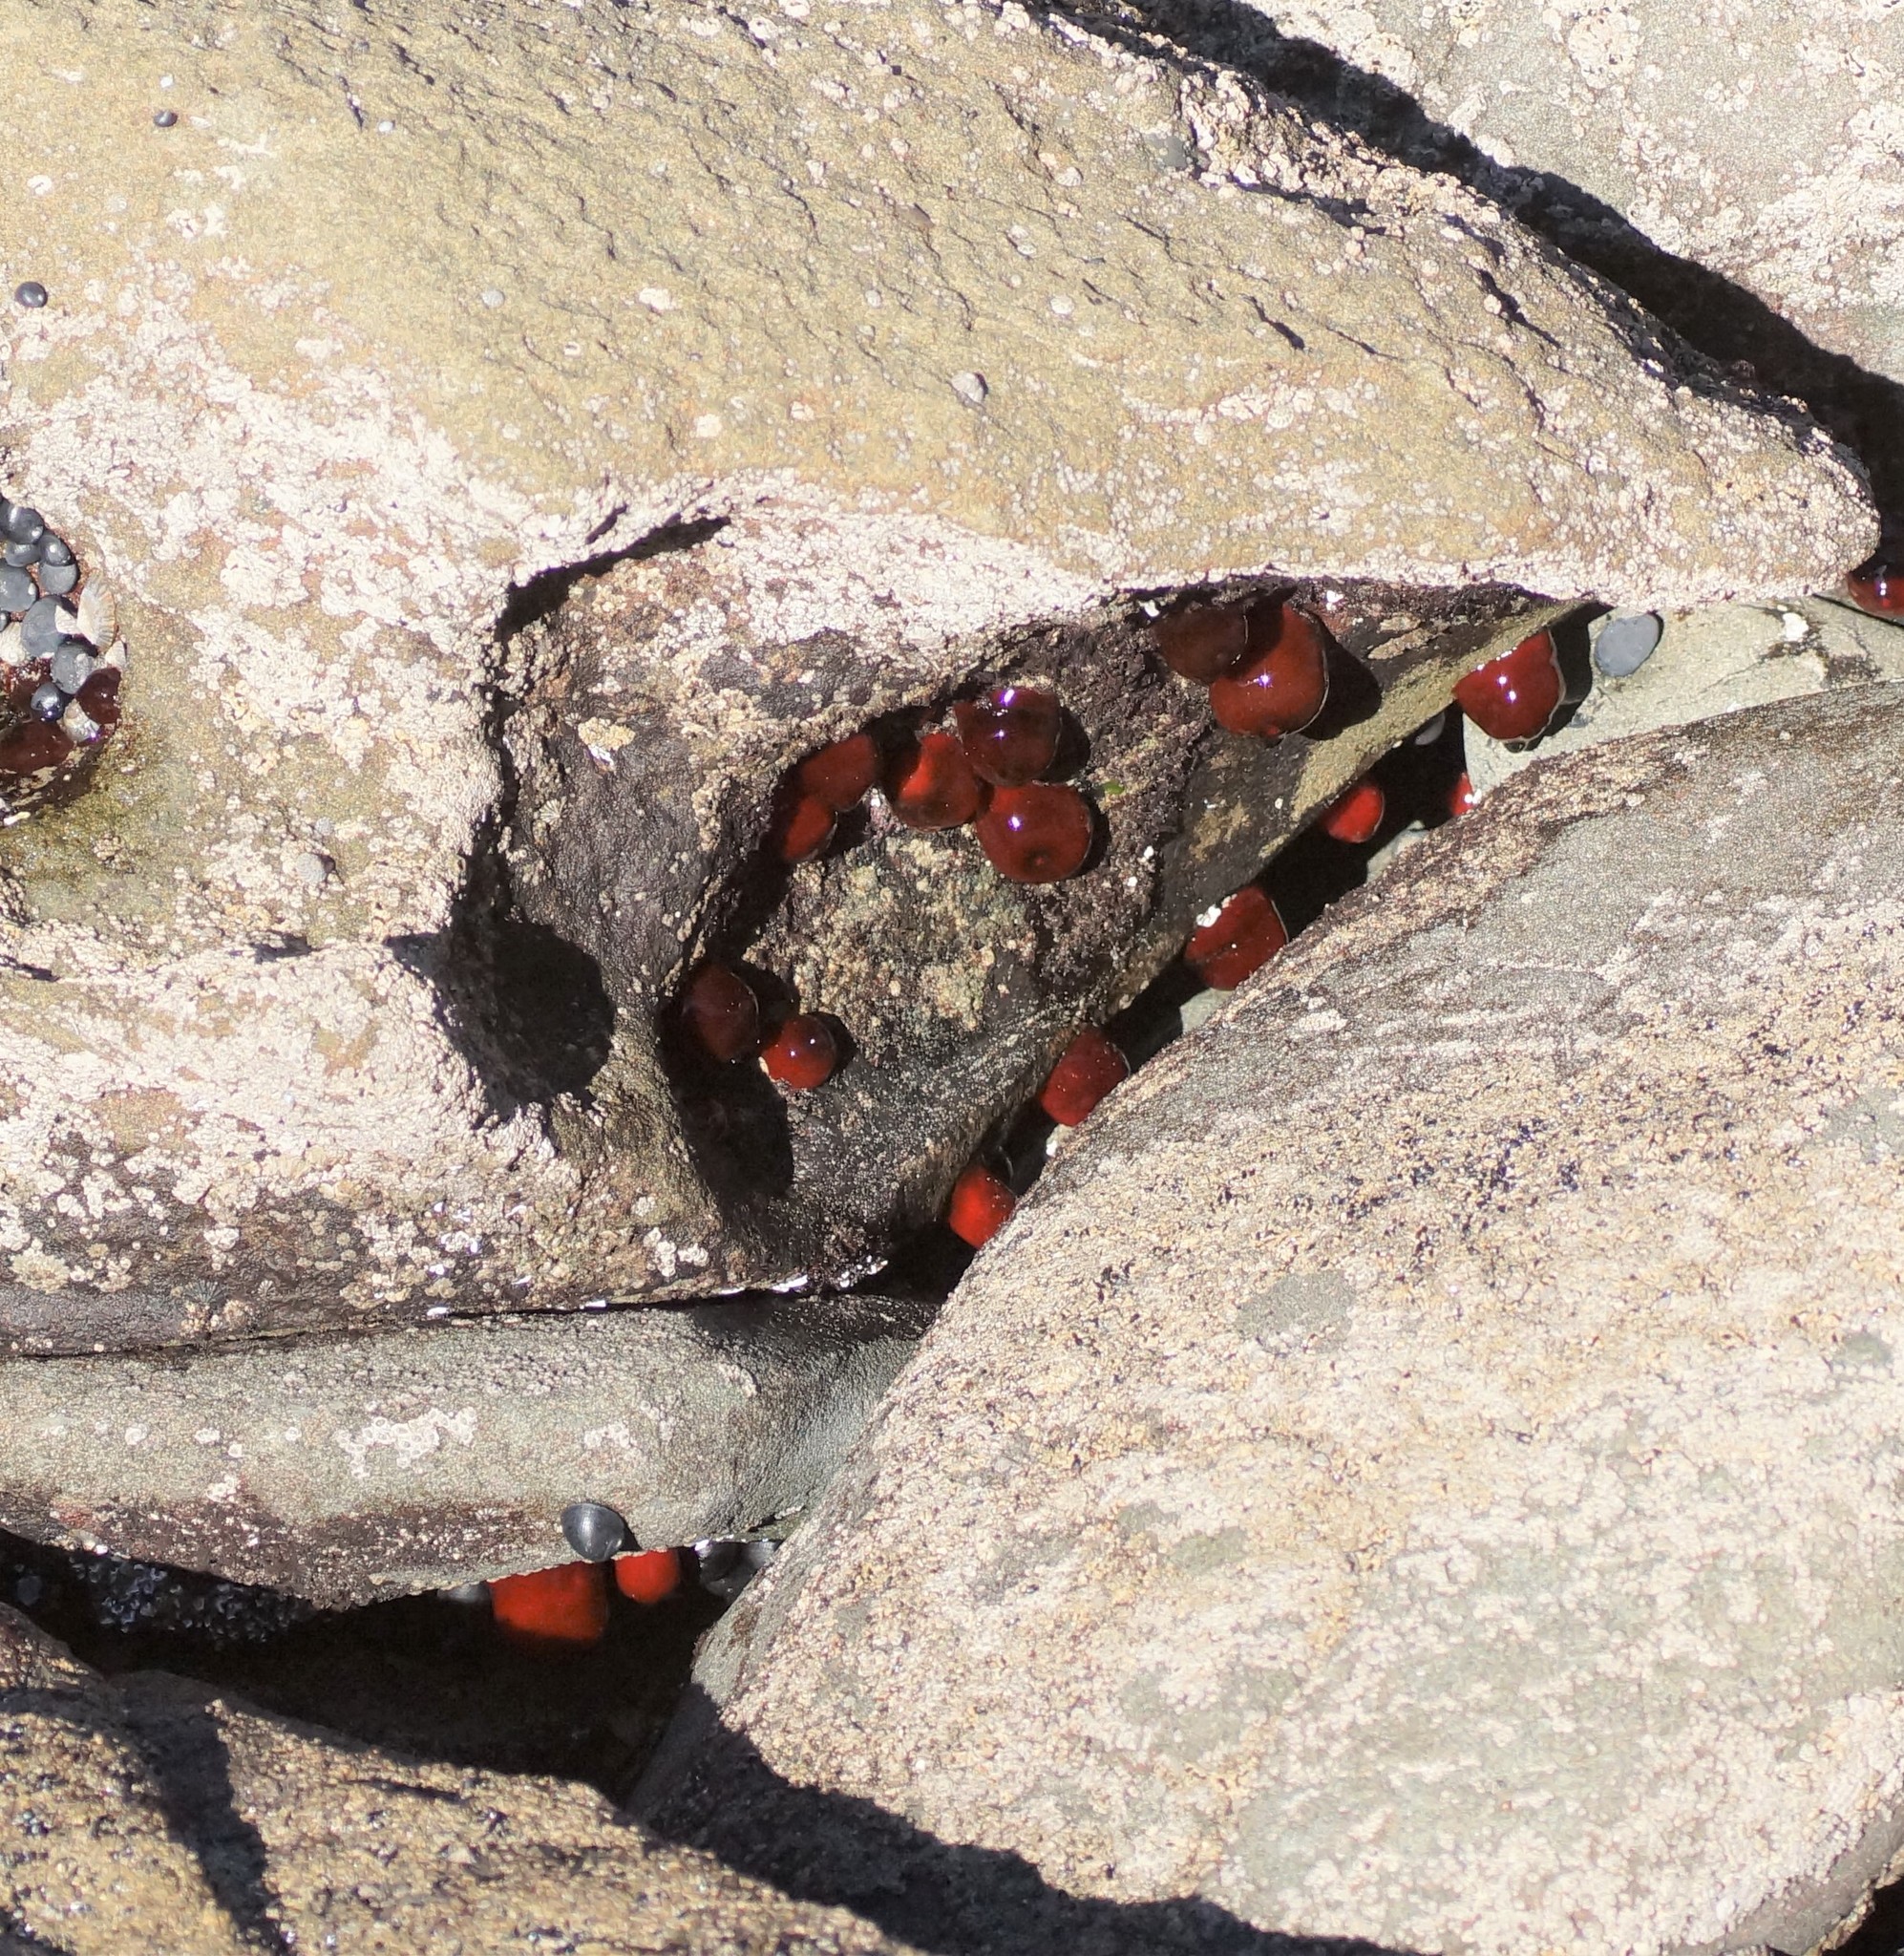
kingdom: Animalia
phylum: Cnidaria
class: Anthozoa
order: Actiniaria
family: Actiniidae
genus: Actinia
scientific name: Actinia tenebrosa
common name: Waratah anemone
